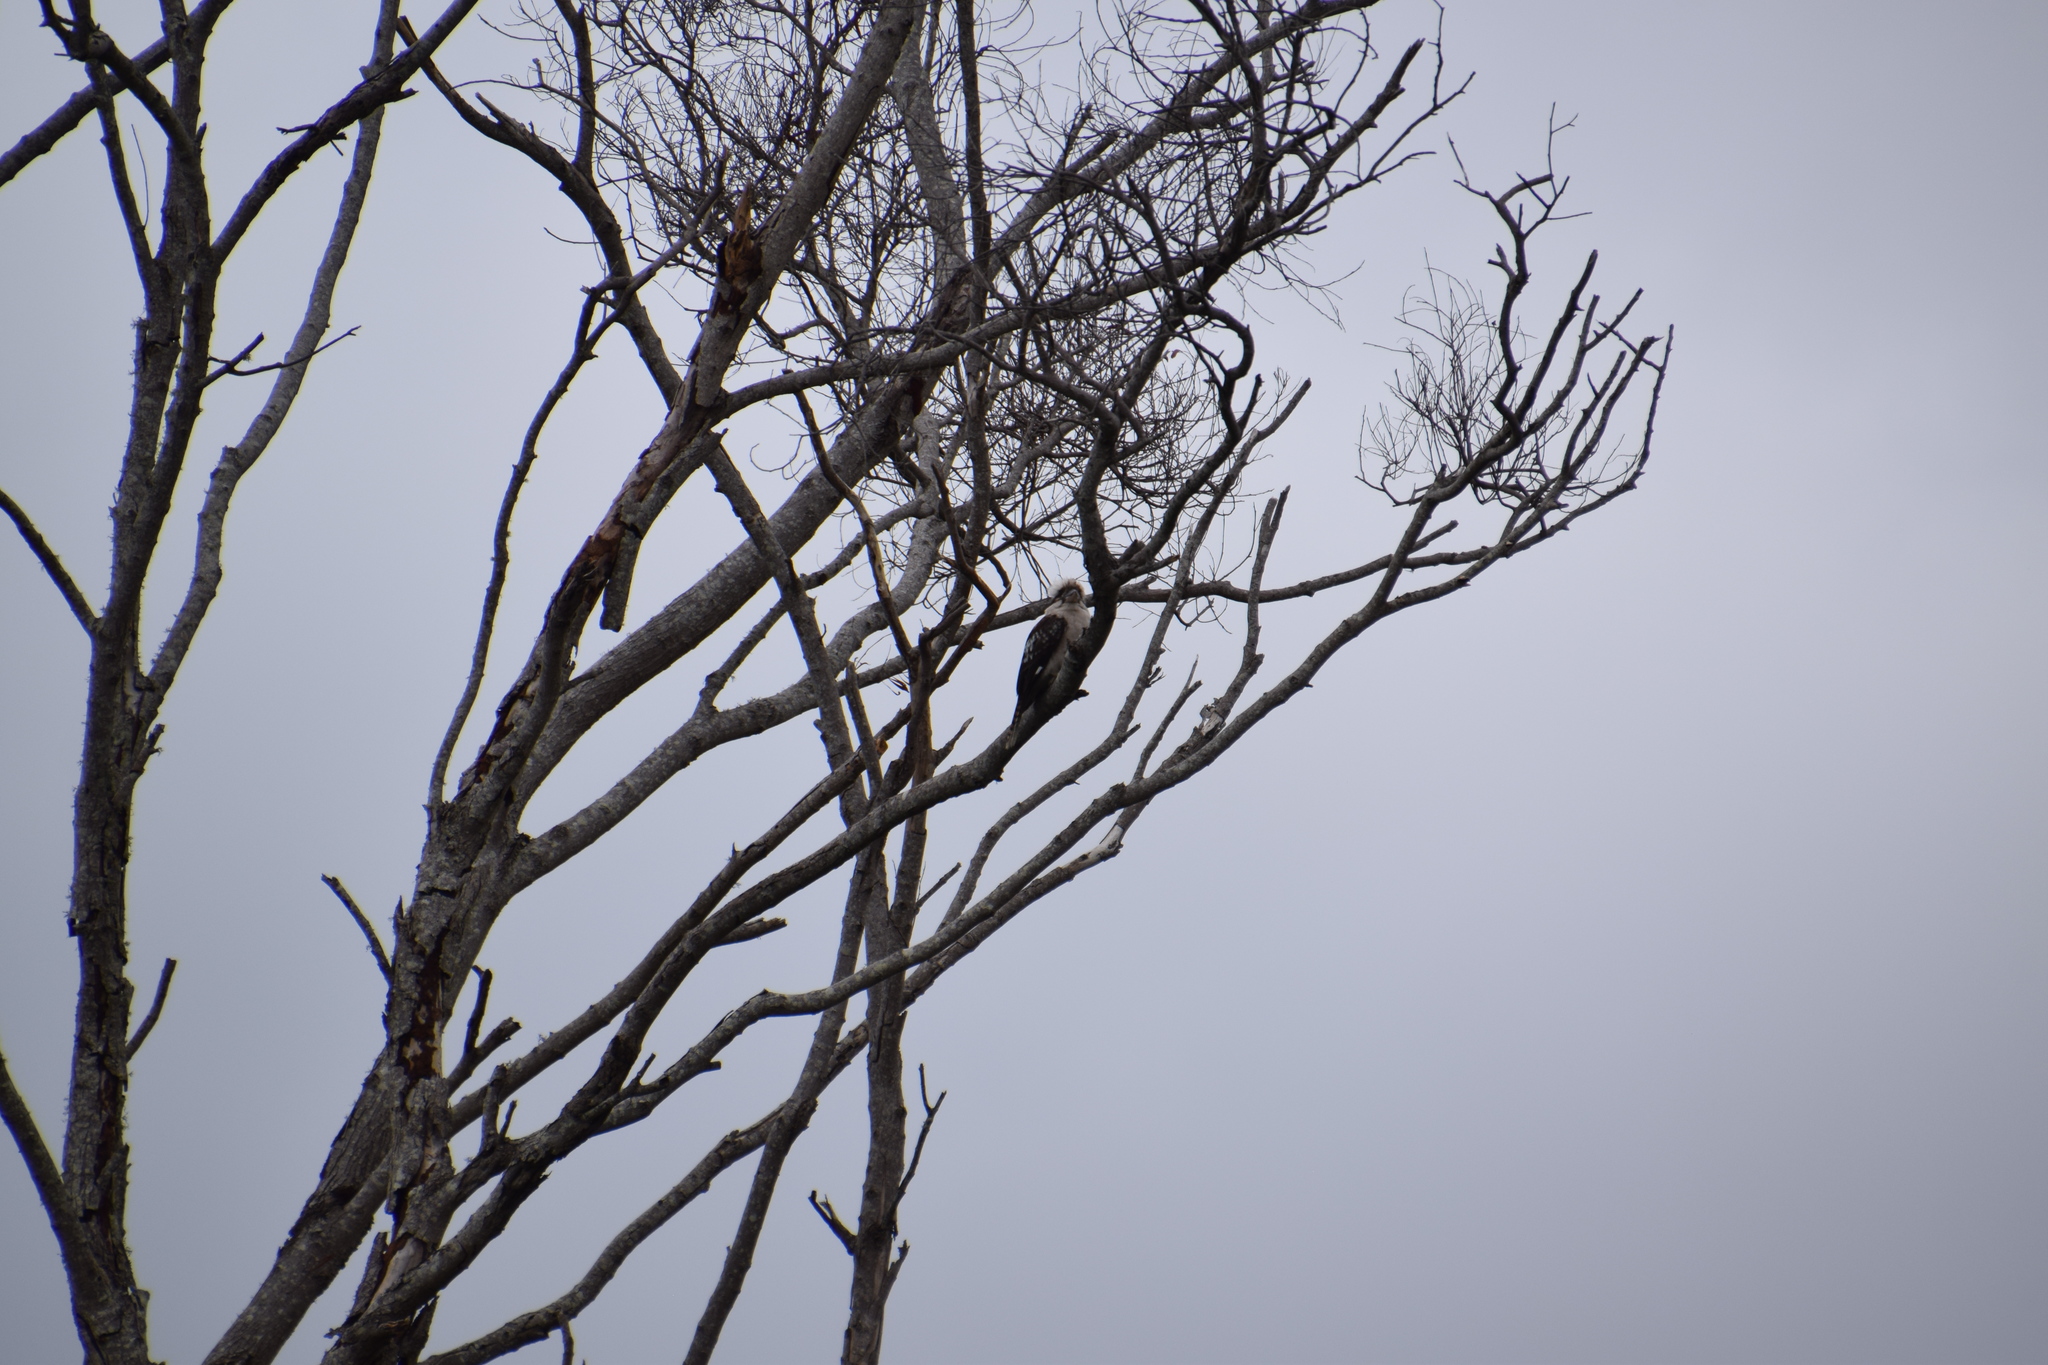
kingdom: Animalia
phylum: Chordata
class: Aves
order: Coraciiformes
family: Alcedinidae
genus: Dacelo
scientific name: Dacelo novaeguineae
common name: Laughing kookaburra
